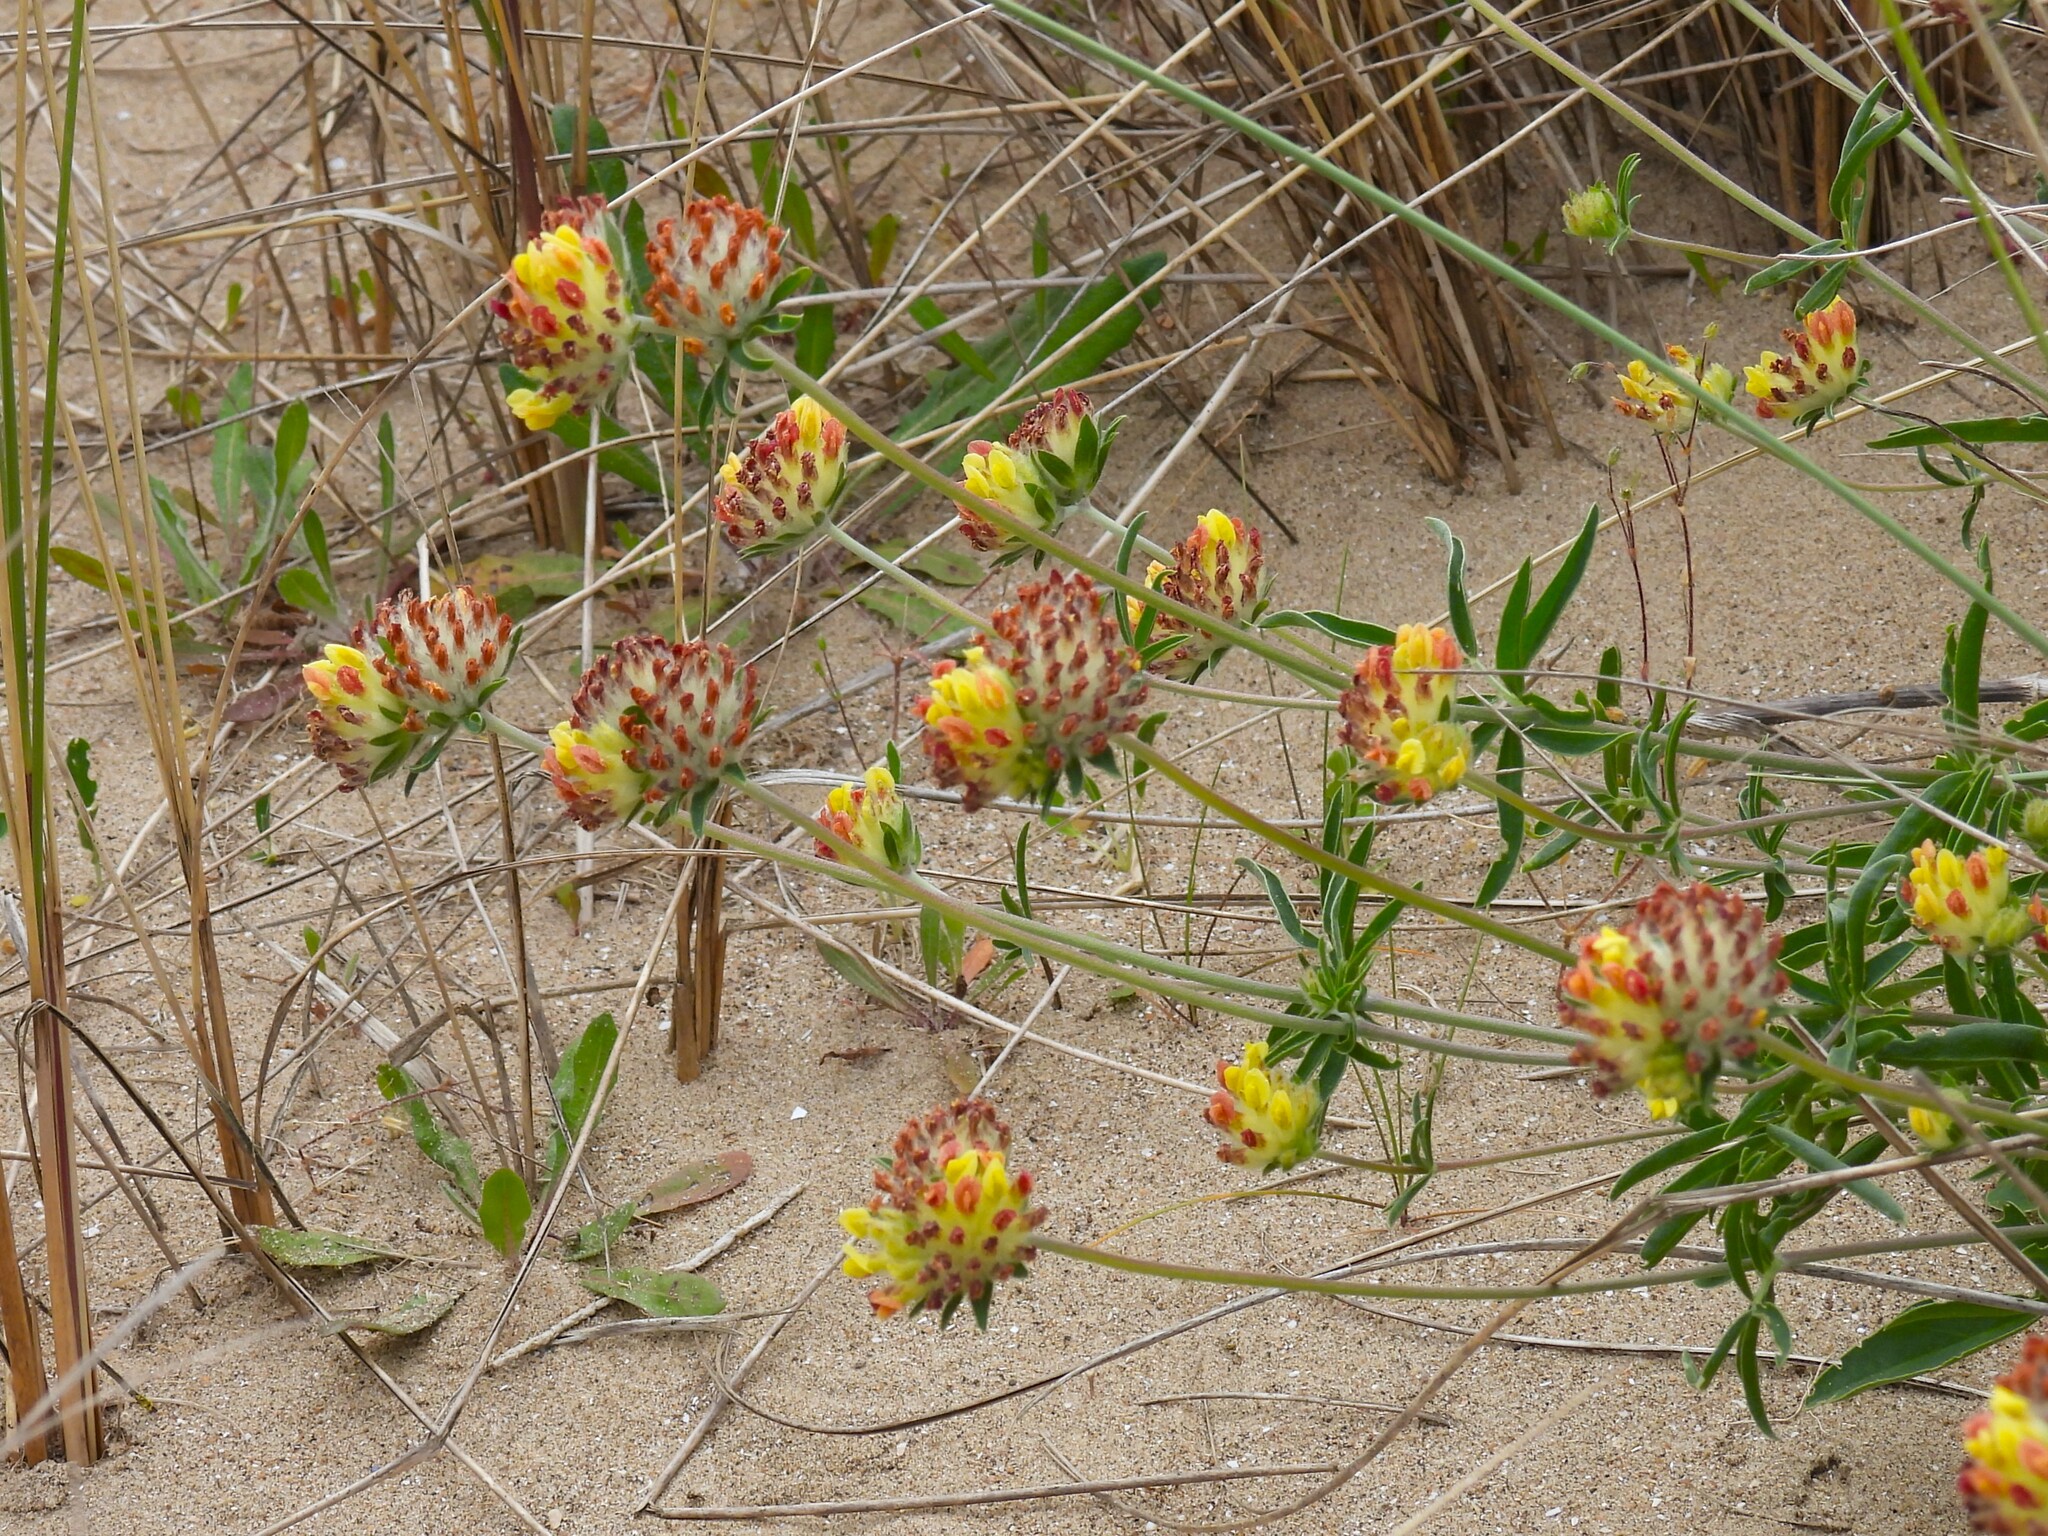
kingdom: Plantae
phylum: Tracheophyta
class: Magnoliopsida
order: Fabales
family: Fabaceae
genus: Anthyllis
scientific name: Anthyllis vulneraria
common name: Kidney vetch
